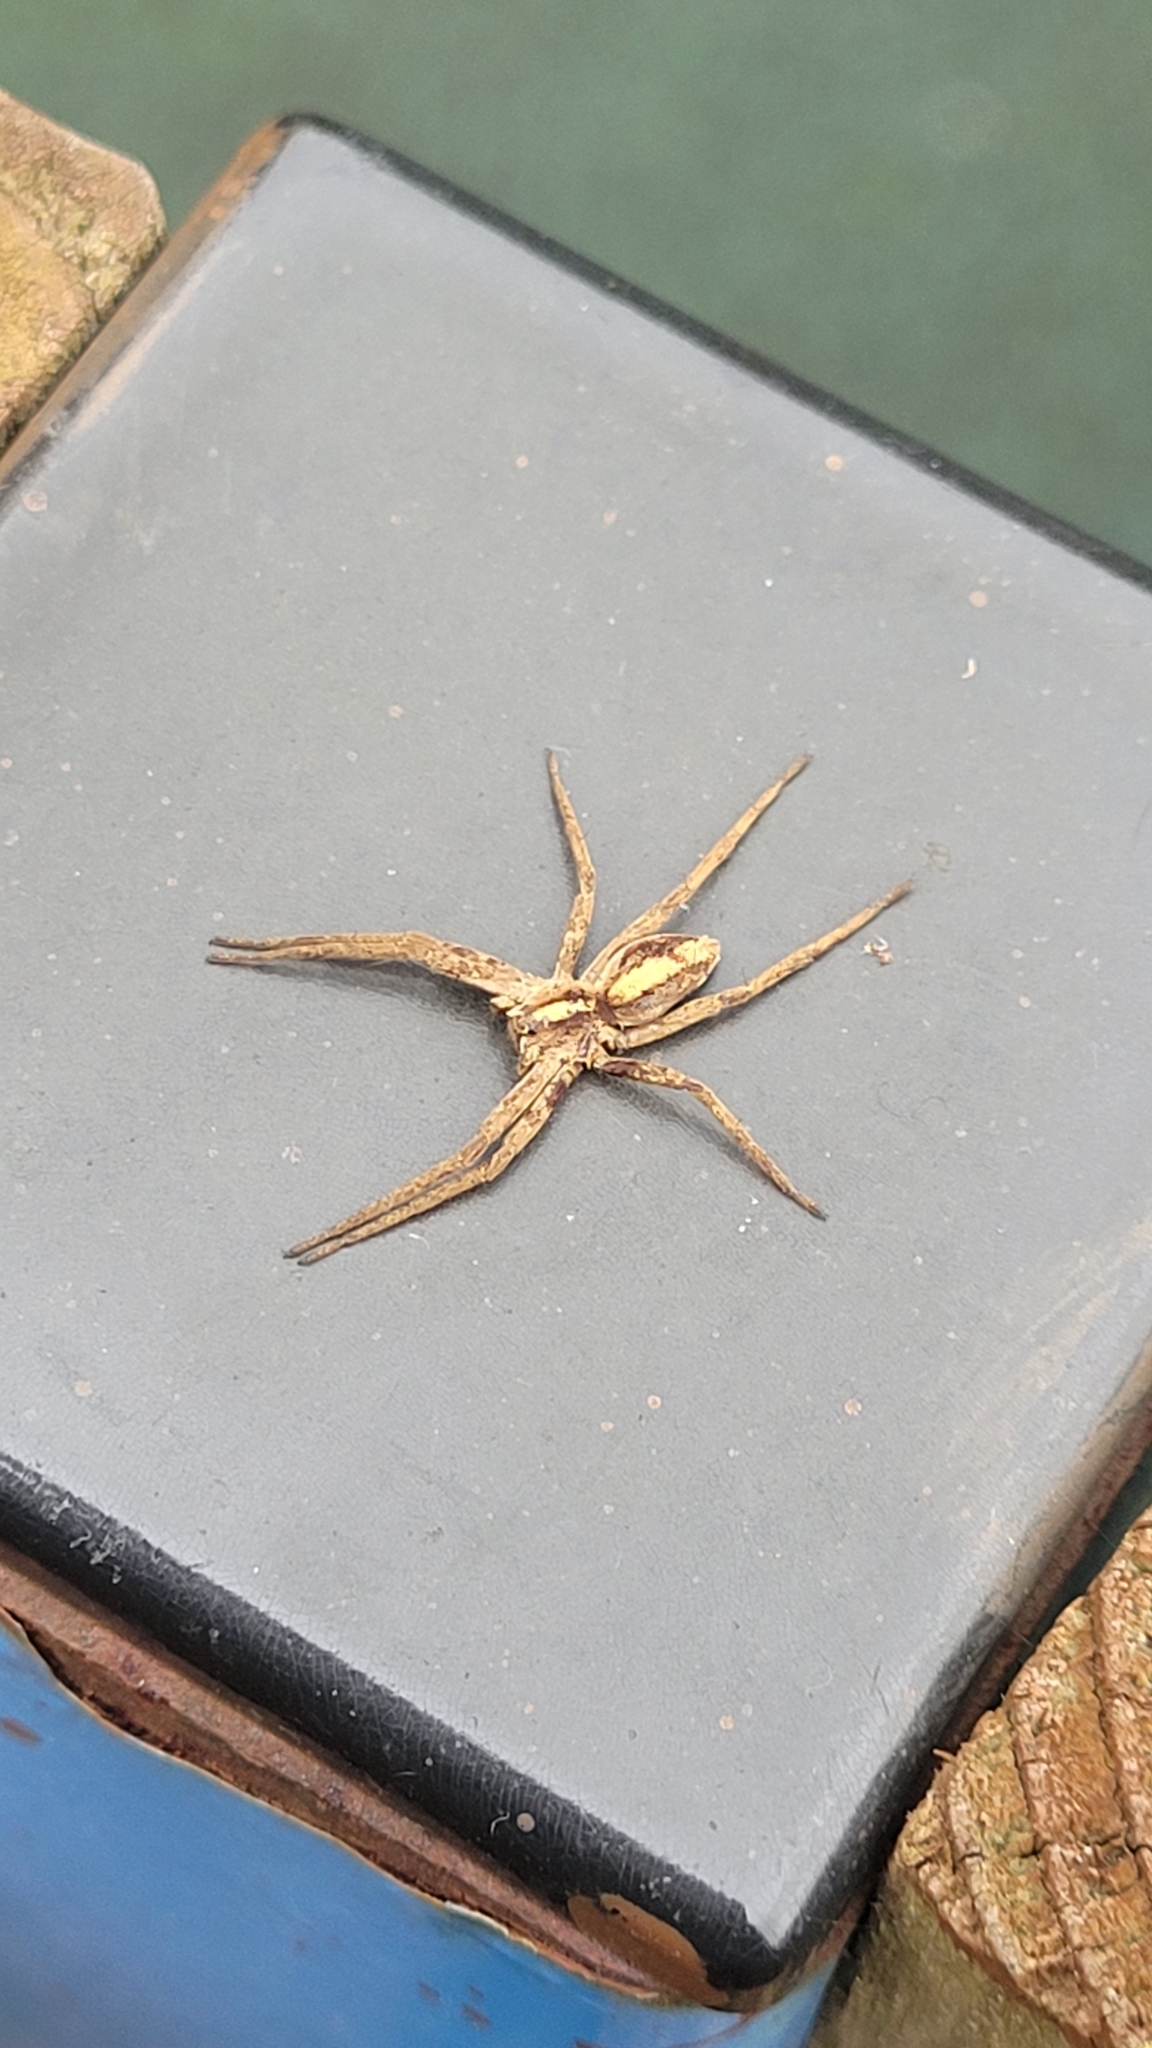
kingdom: Animalia
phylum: Arthropoda
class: Arachnida
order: Araneae
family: Pisauridae
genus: Pisaura
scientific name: Pisaura mirabilis
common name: Tent spider
